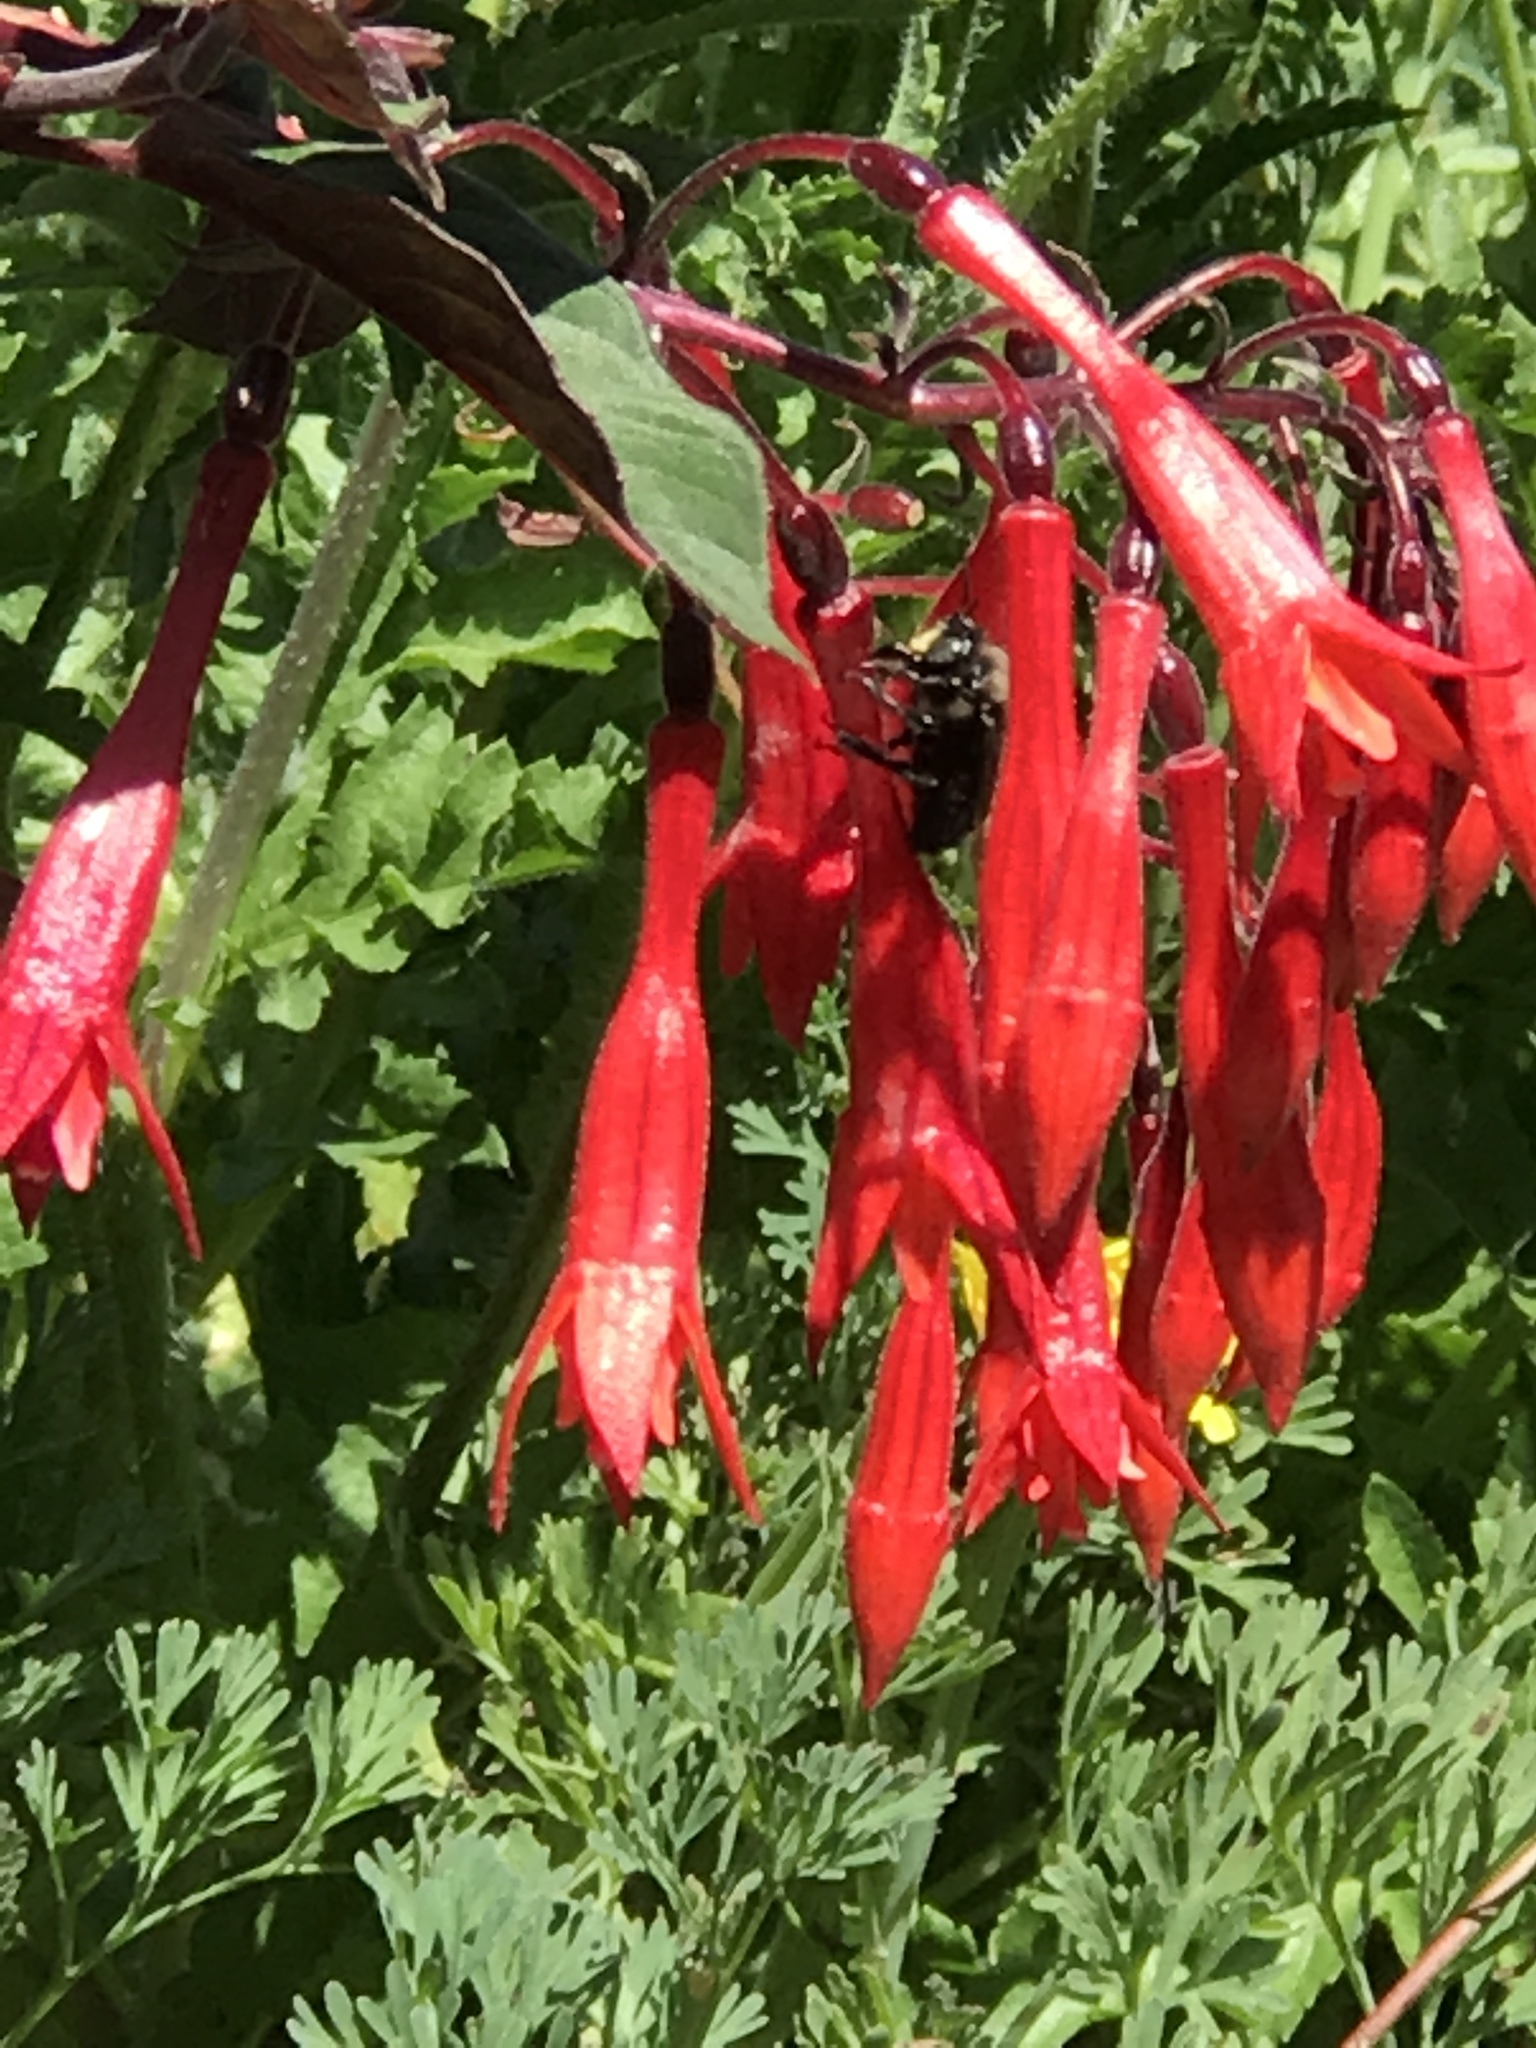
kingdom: Animalia
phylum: Arthropoda
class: Insecta
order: Hymenoptera
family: Apidae
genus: Xylocopa
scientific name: Xylocopa tabaniformis
